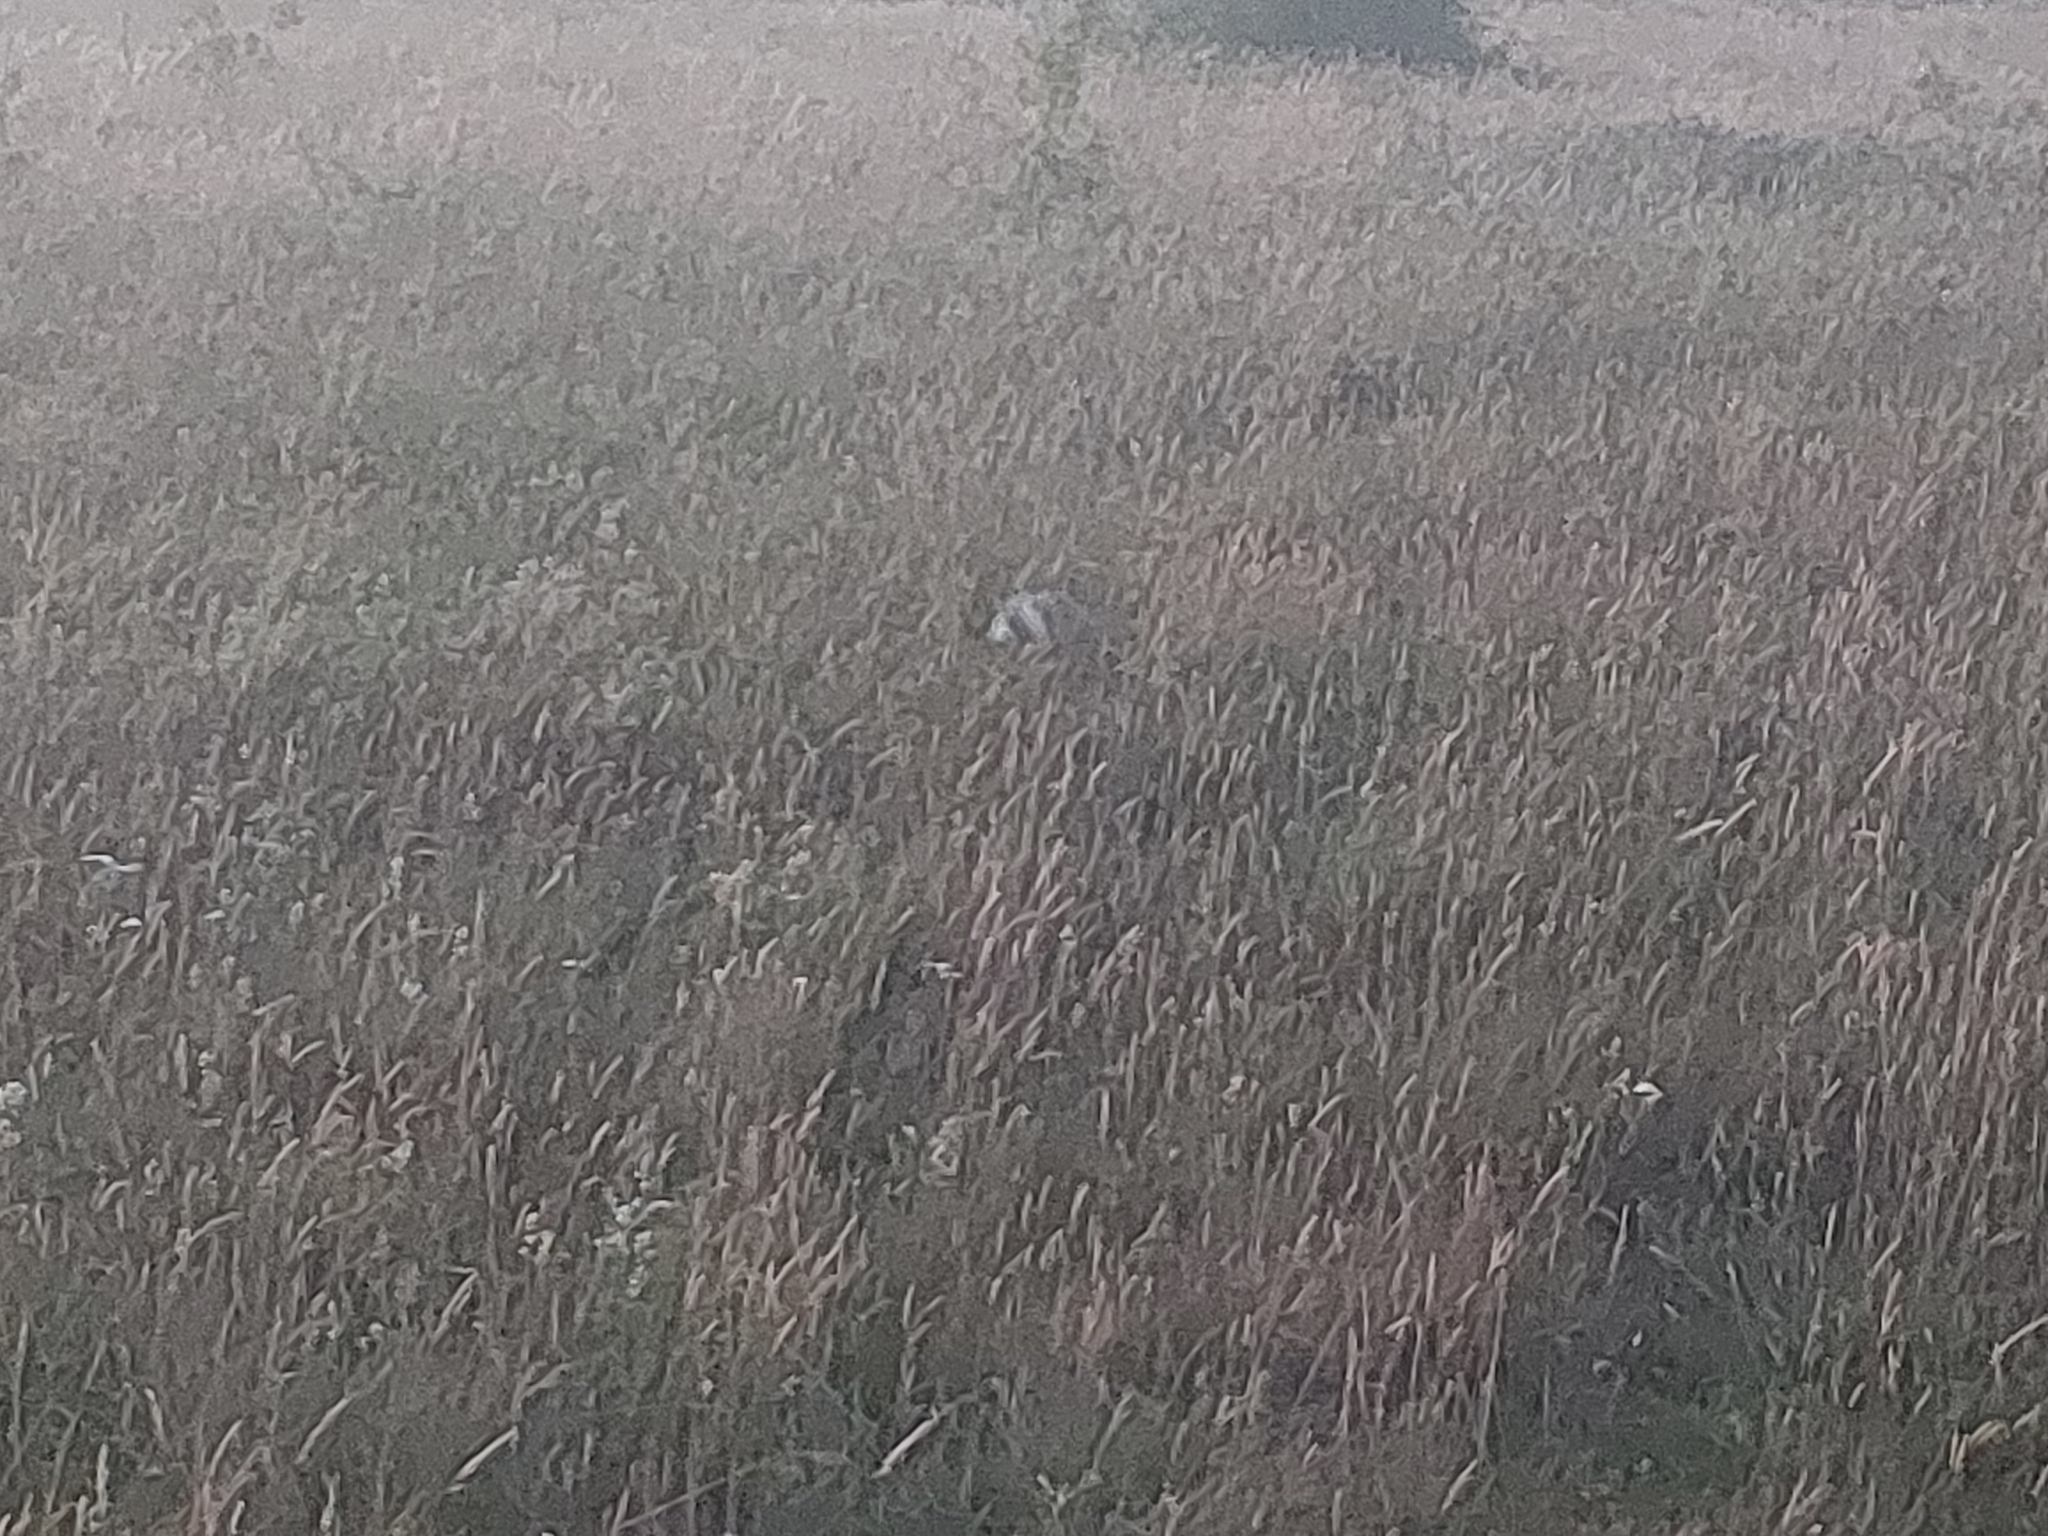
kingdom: Animalia
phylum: Chordata
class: Mammalia
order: Carnivora
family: Mustelidae
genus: Meles
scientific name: Meles meles
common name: Eurasian badger
